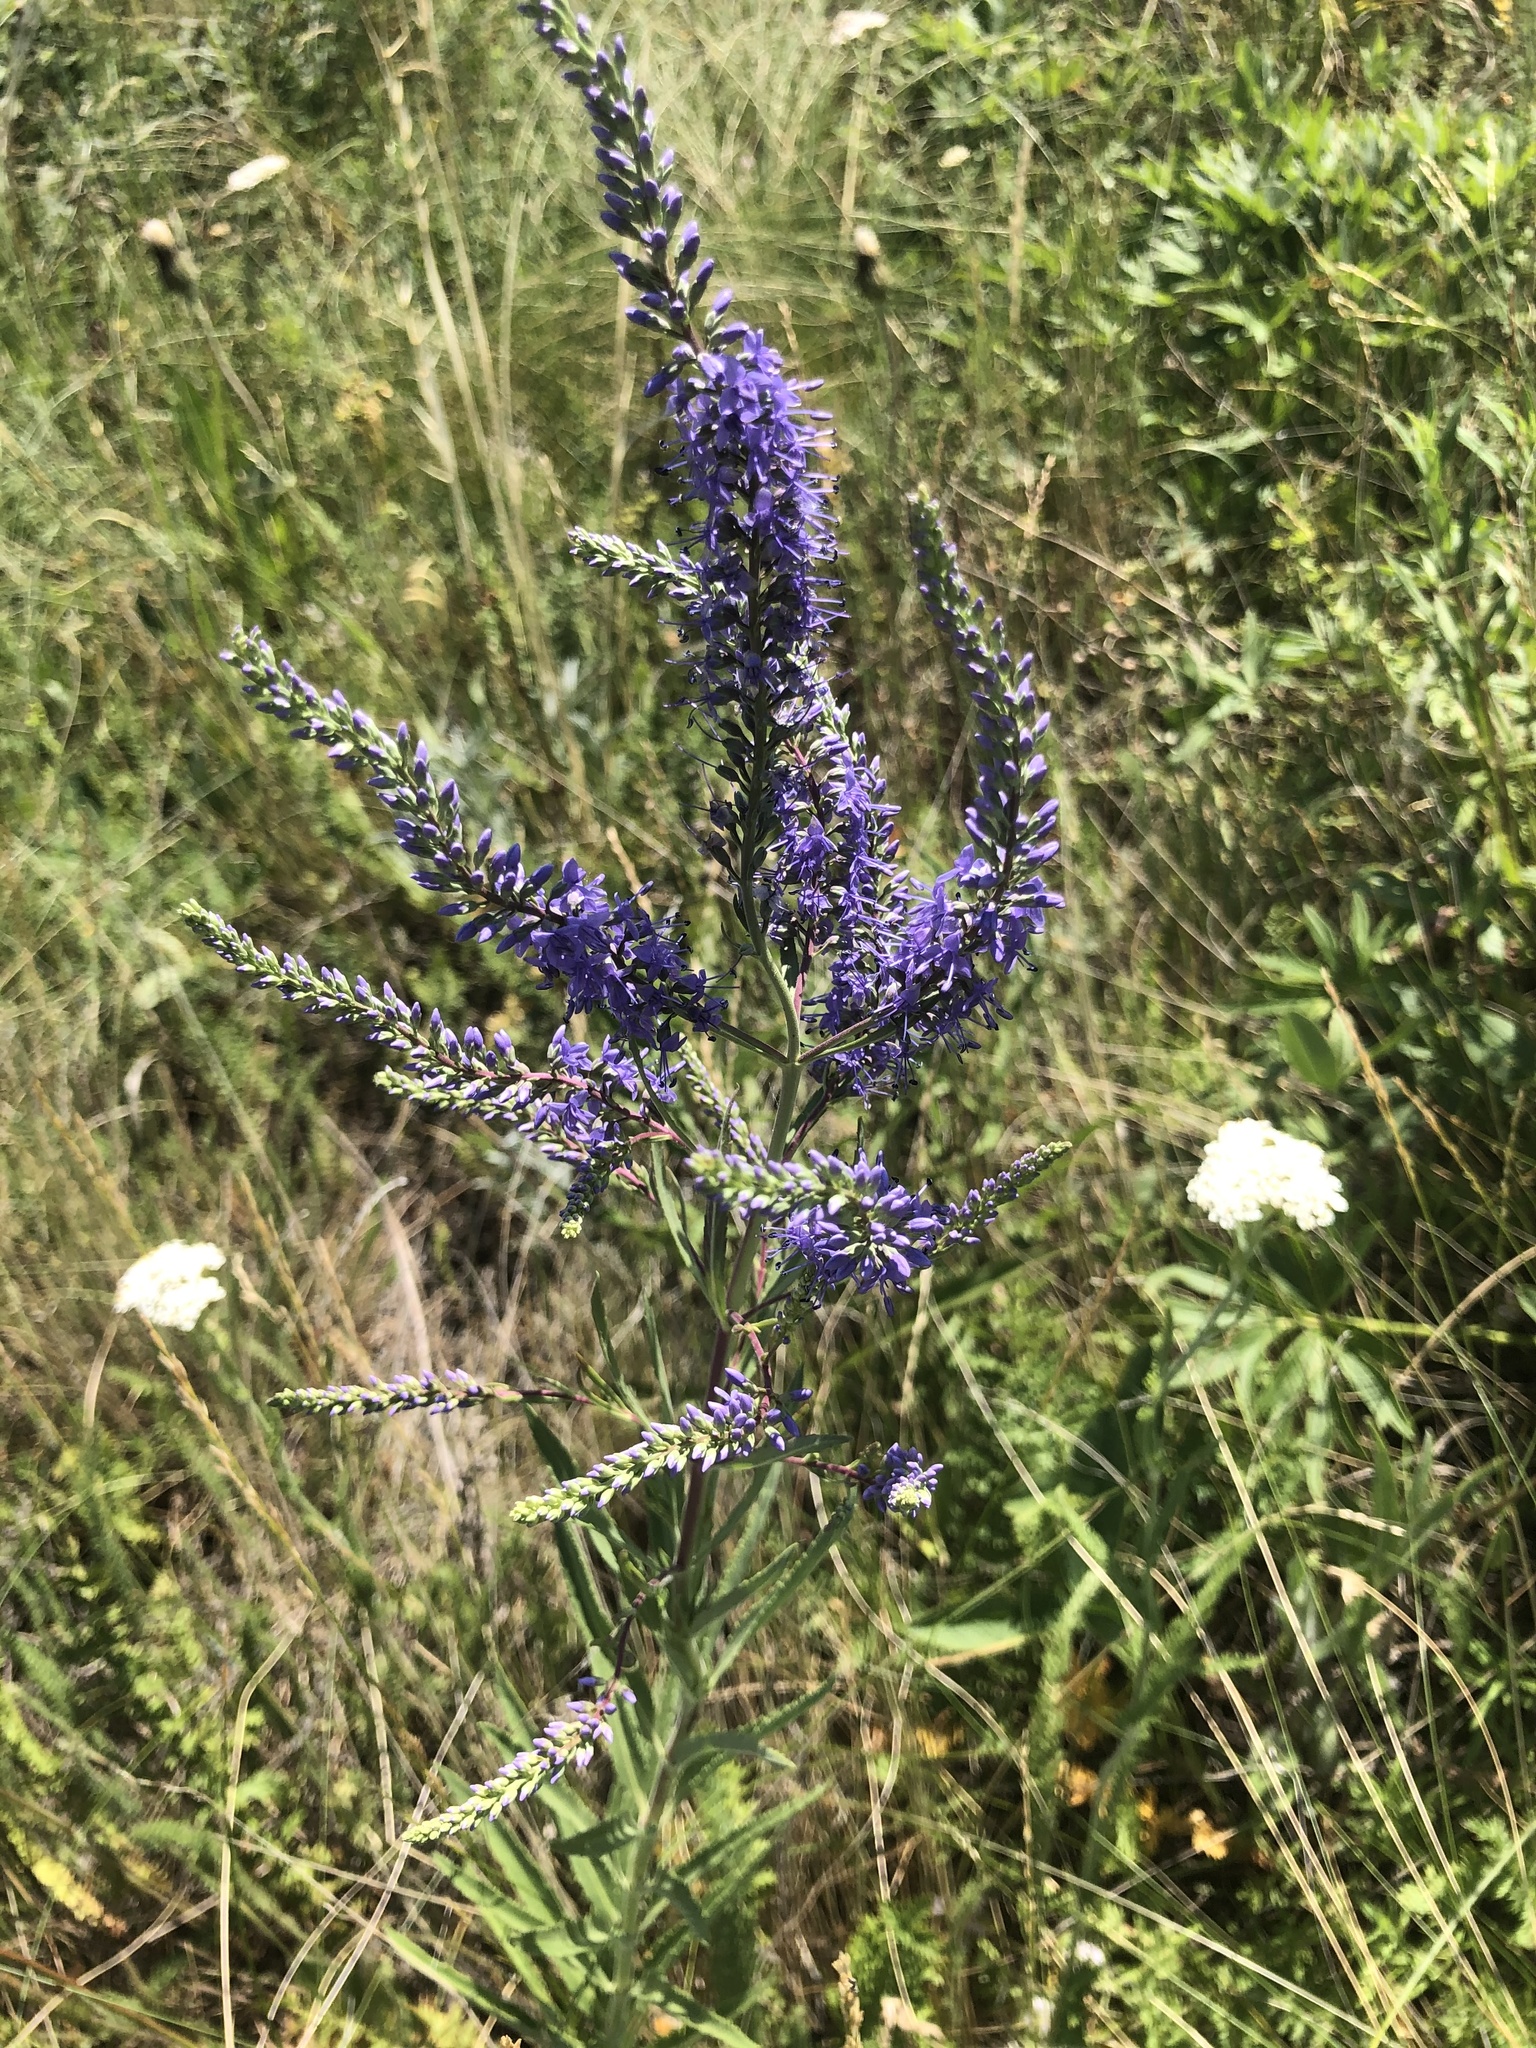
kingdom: Plantae
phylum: Tracheophyta
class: Magnoliopsida
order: Lamiales
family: Plantaginaceae
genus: Veronica
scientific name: Veronica spuria
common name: Bastard speedwell
